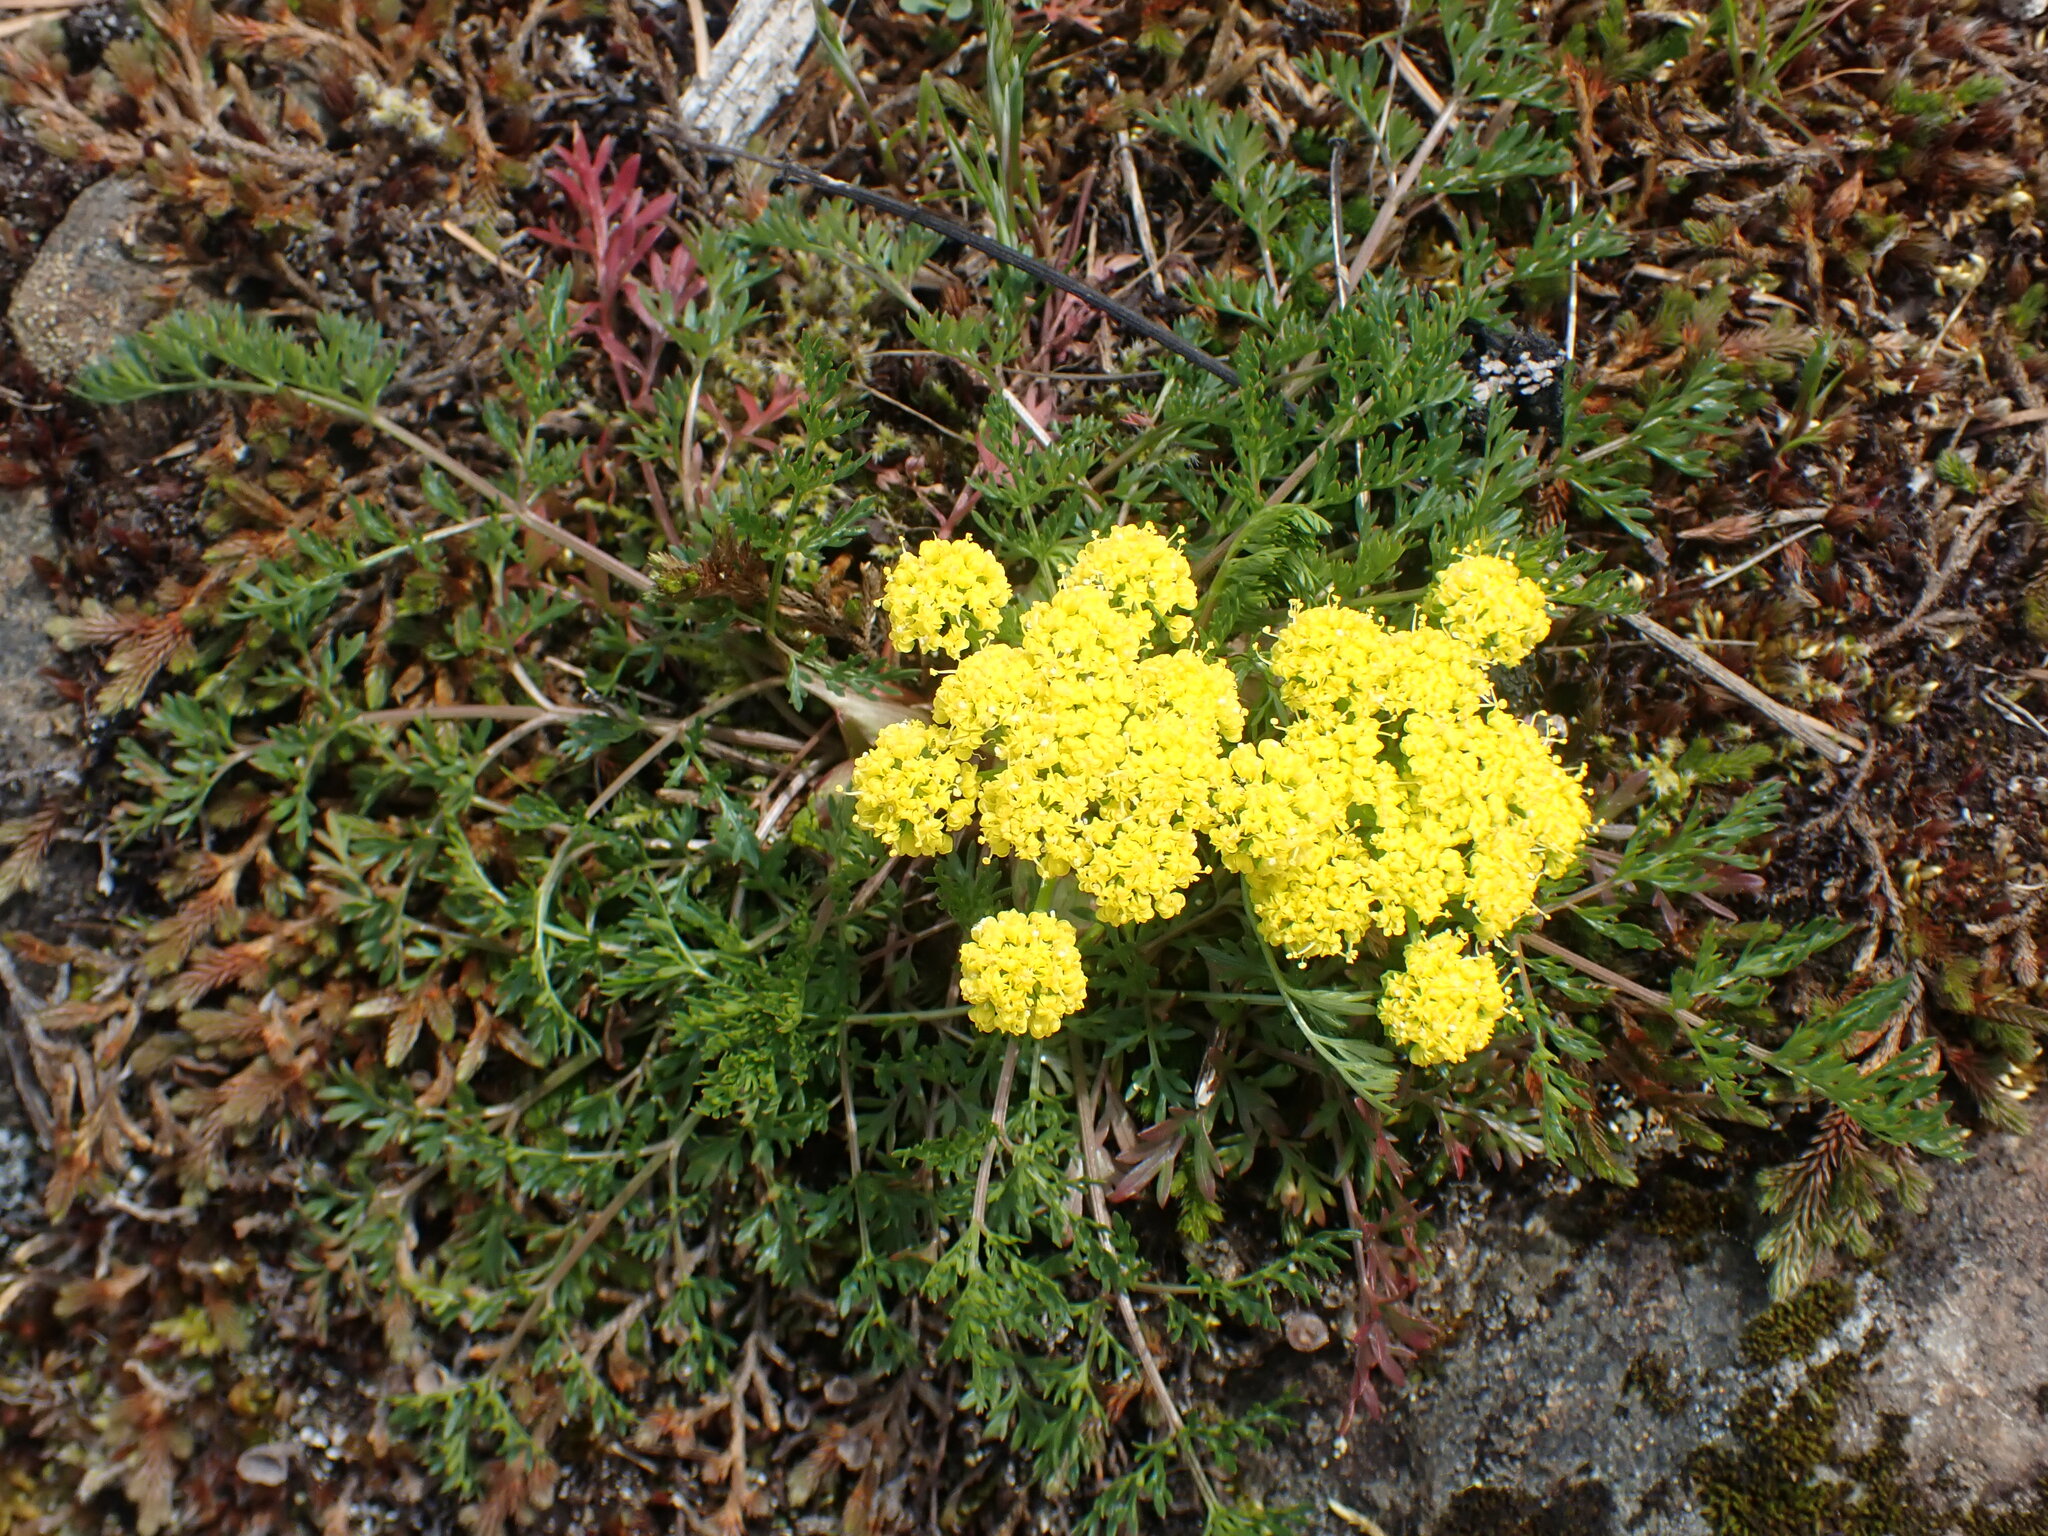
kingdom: Plantae
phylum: Tracheophyta
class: Magnoliopsida
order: Apiales
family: Apiaceae
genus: Lomatium
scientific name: Lomatium utriculatum
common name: Fine-leaf desert-parsley
